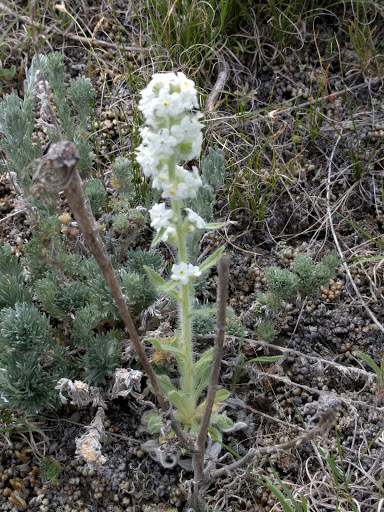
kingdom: Plantae
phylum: Tracheophyta
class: Magnoliopsida
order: Boraginales
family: Boraginaceae
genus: Oreocarya
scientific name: Oreocarya glomerata
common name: Macoun's cryptantha
